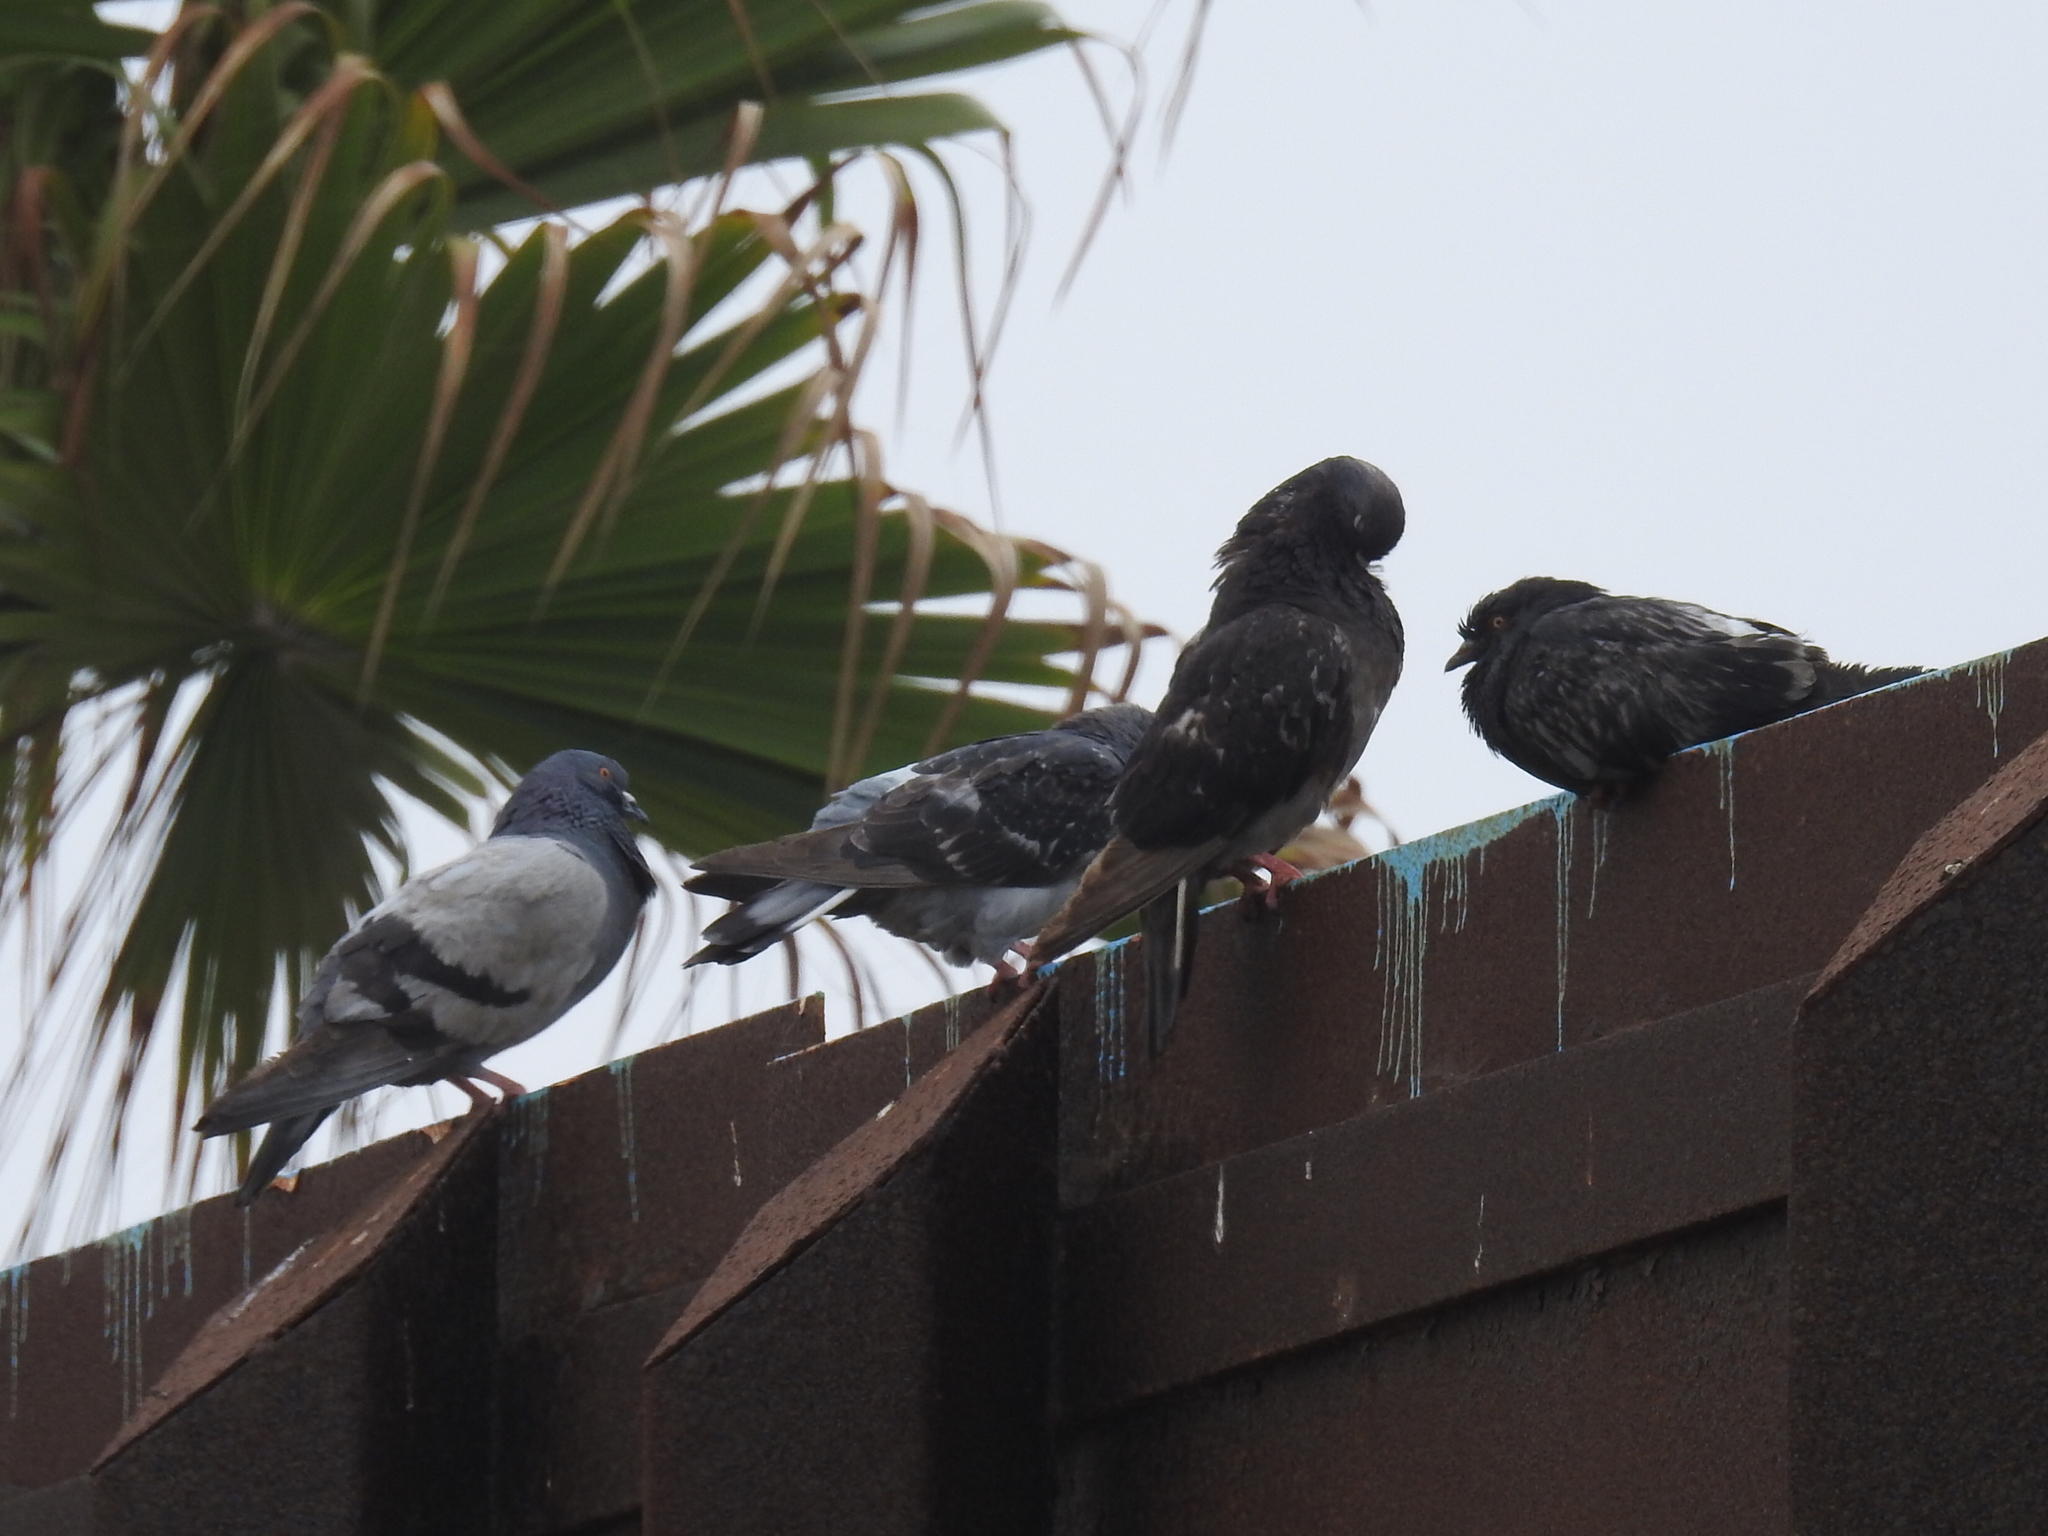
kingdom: Animalia
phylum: Chordata
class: Aves
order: Columbiformes
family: Columbidae
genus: Columba
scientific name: Columba livia
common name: Rock pigeon
